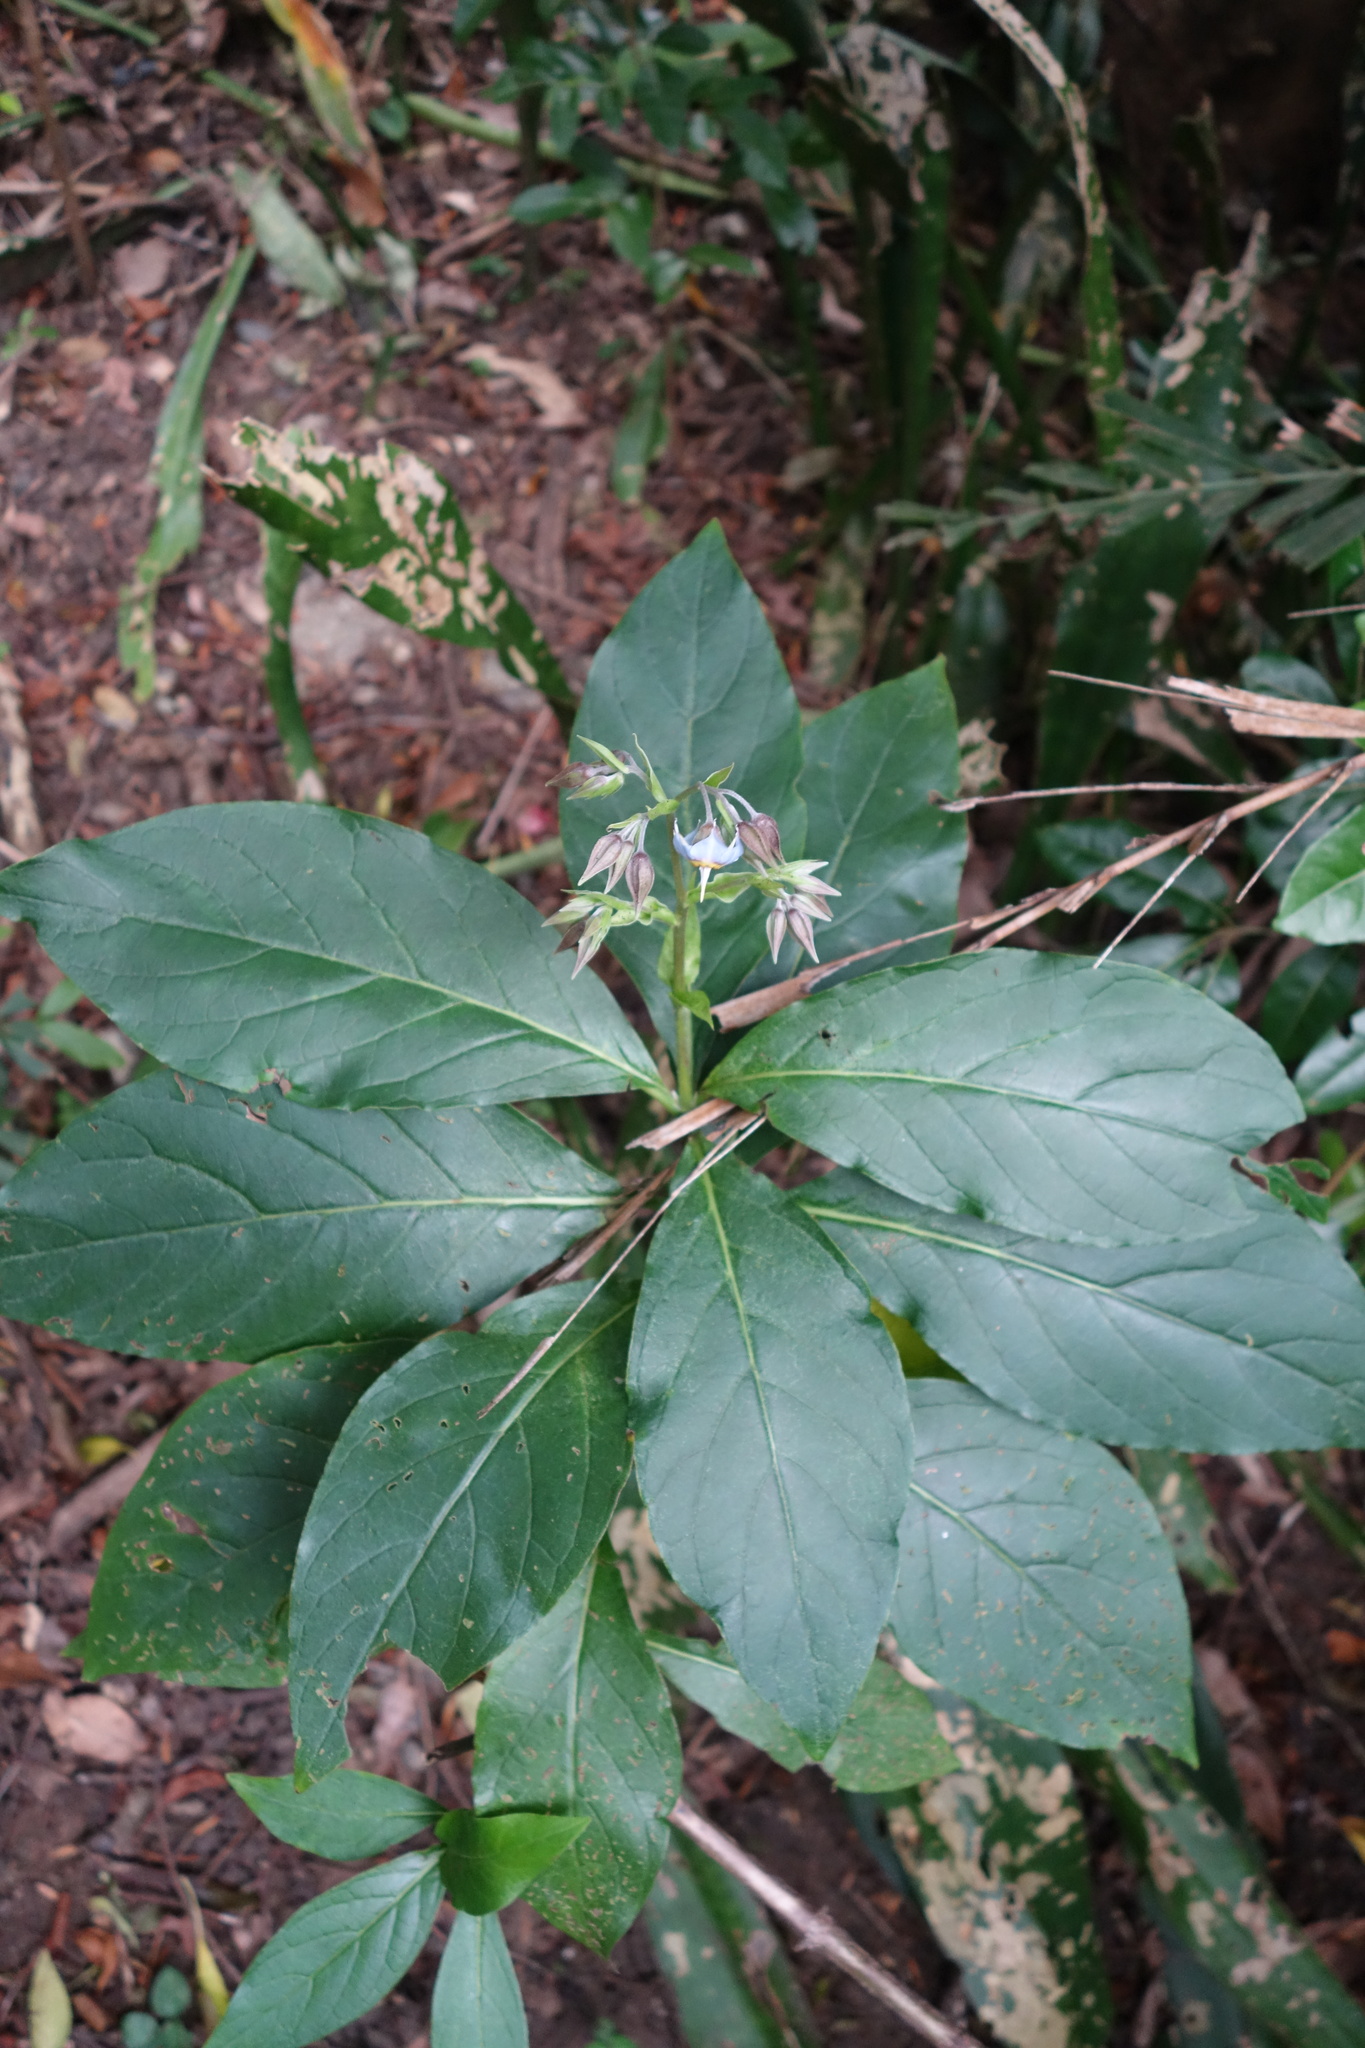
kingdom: Plantae
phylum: Tracheophyta
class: Magnoliopsida
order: Boraginales
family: Boraginaceae
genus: Trichodesma
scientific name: Trichodesma calycosum
